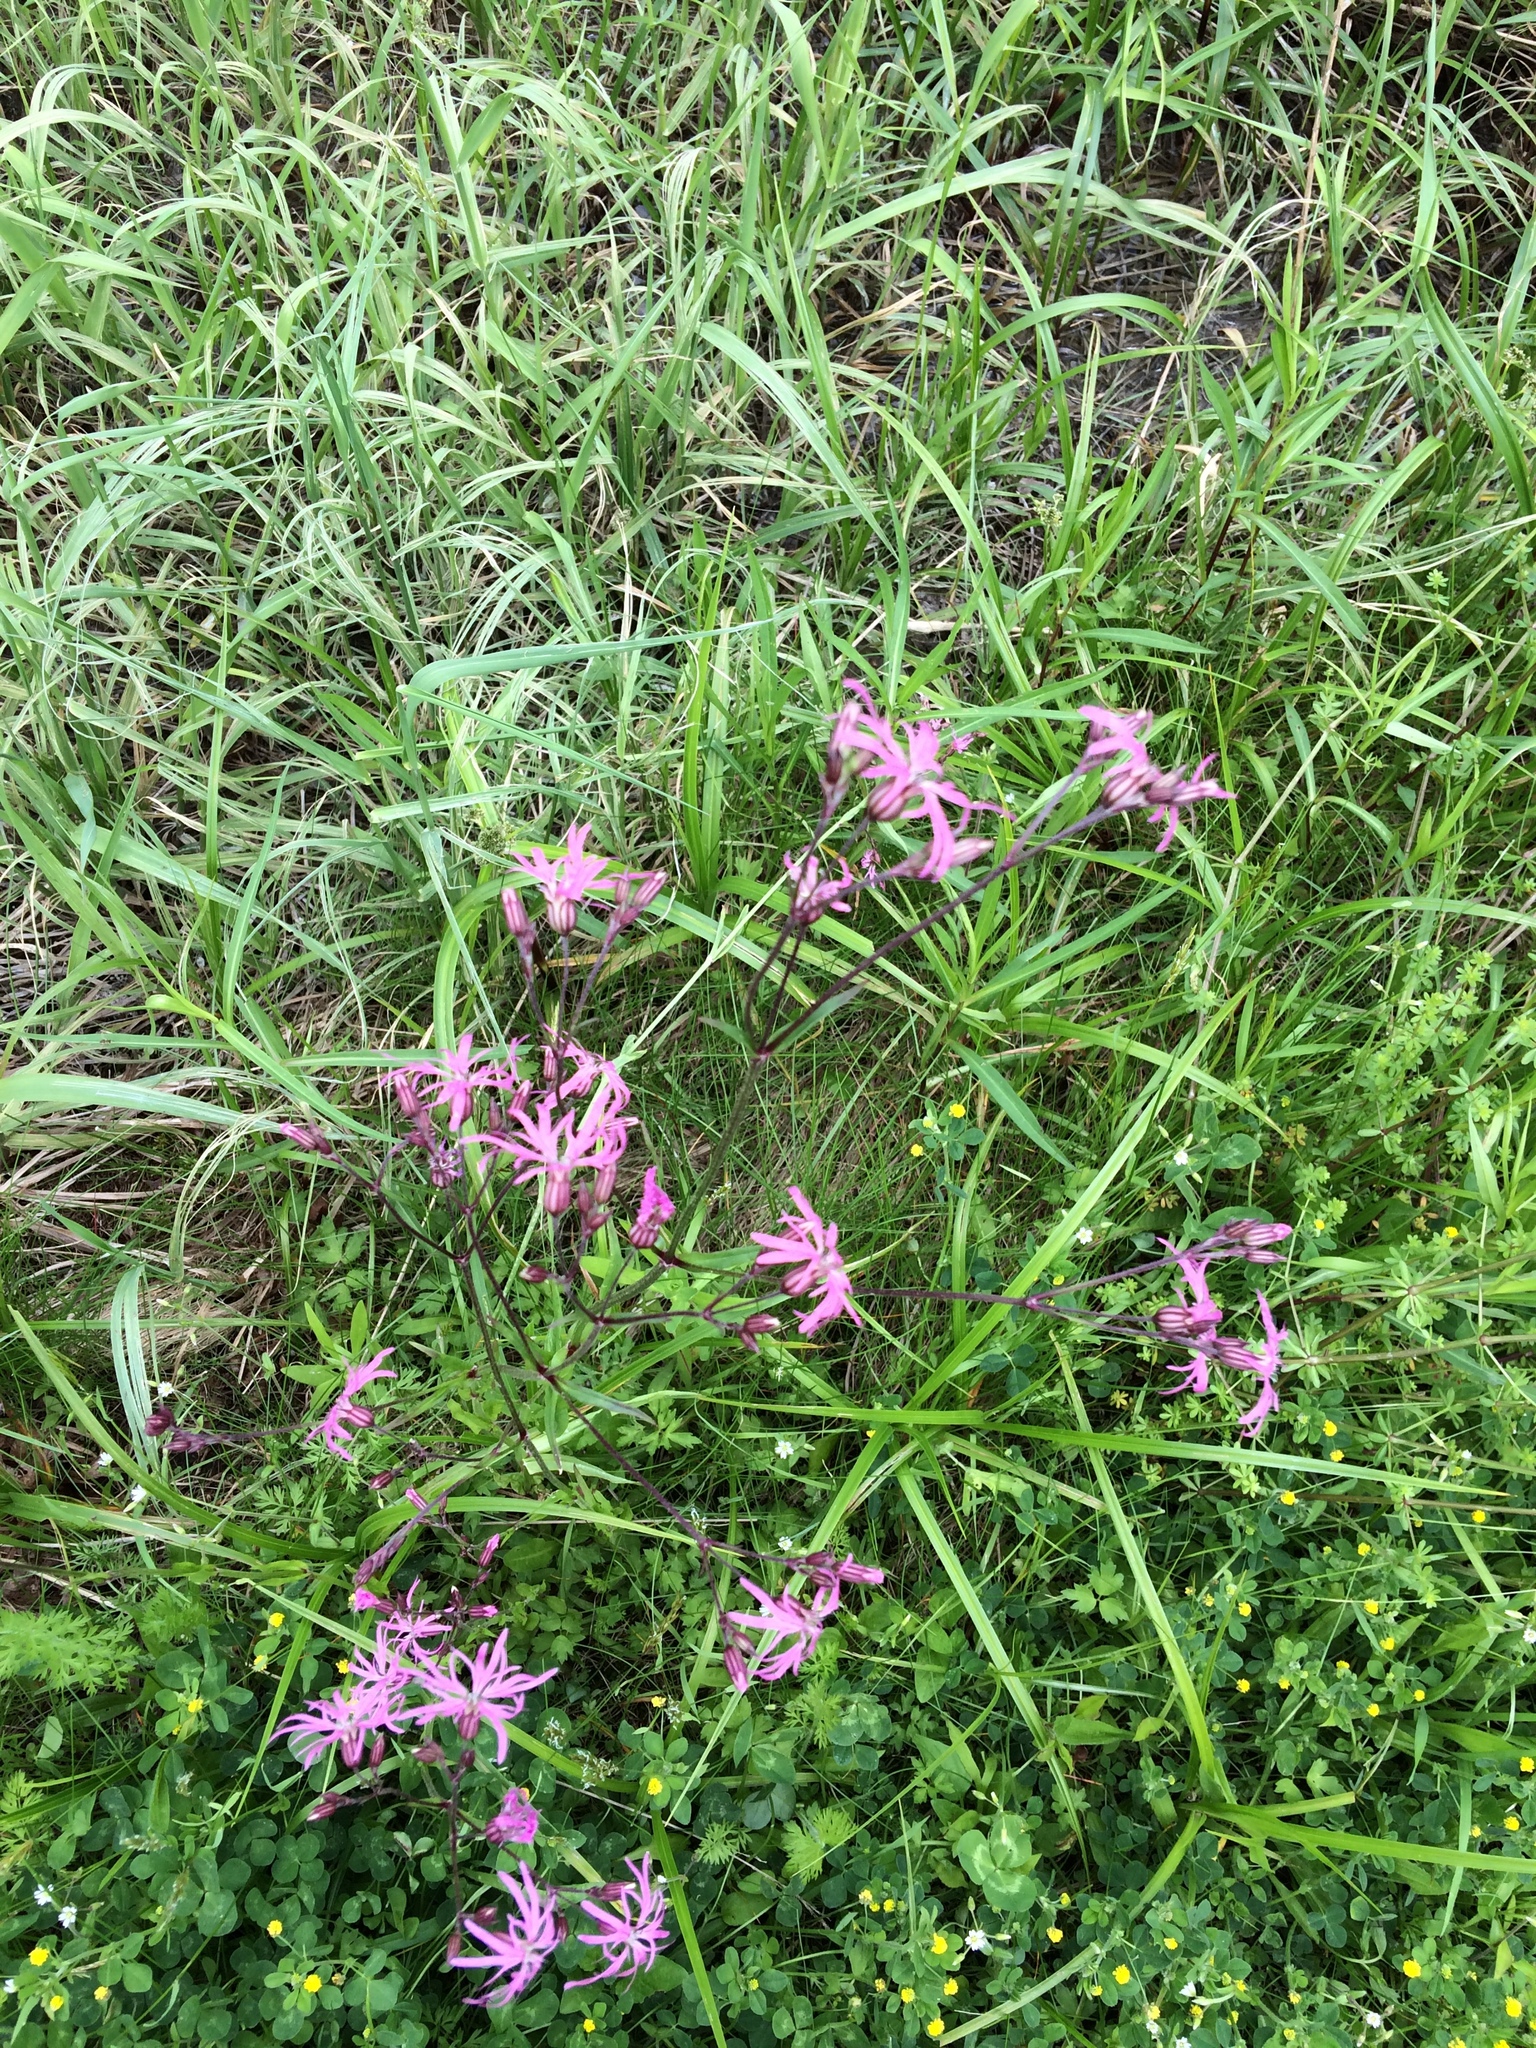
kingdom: Plantae
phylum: Tracheophyta
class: Magnoliopsida
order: Caryophyllales
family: Caryophyllaceae
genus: Silene
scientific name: Silene flos-cuculi
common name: Ragged-robin
